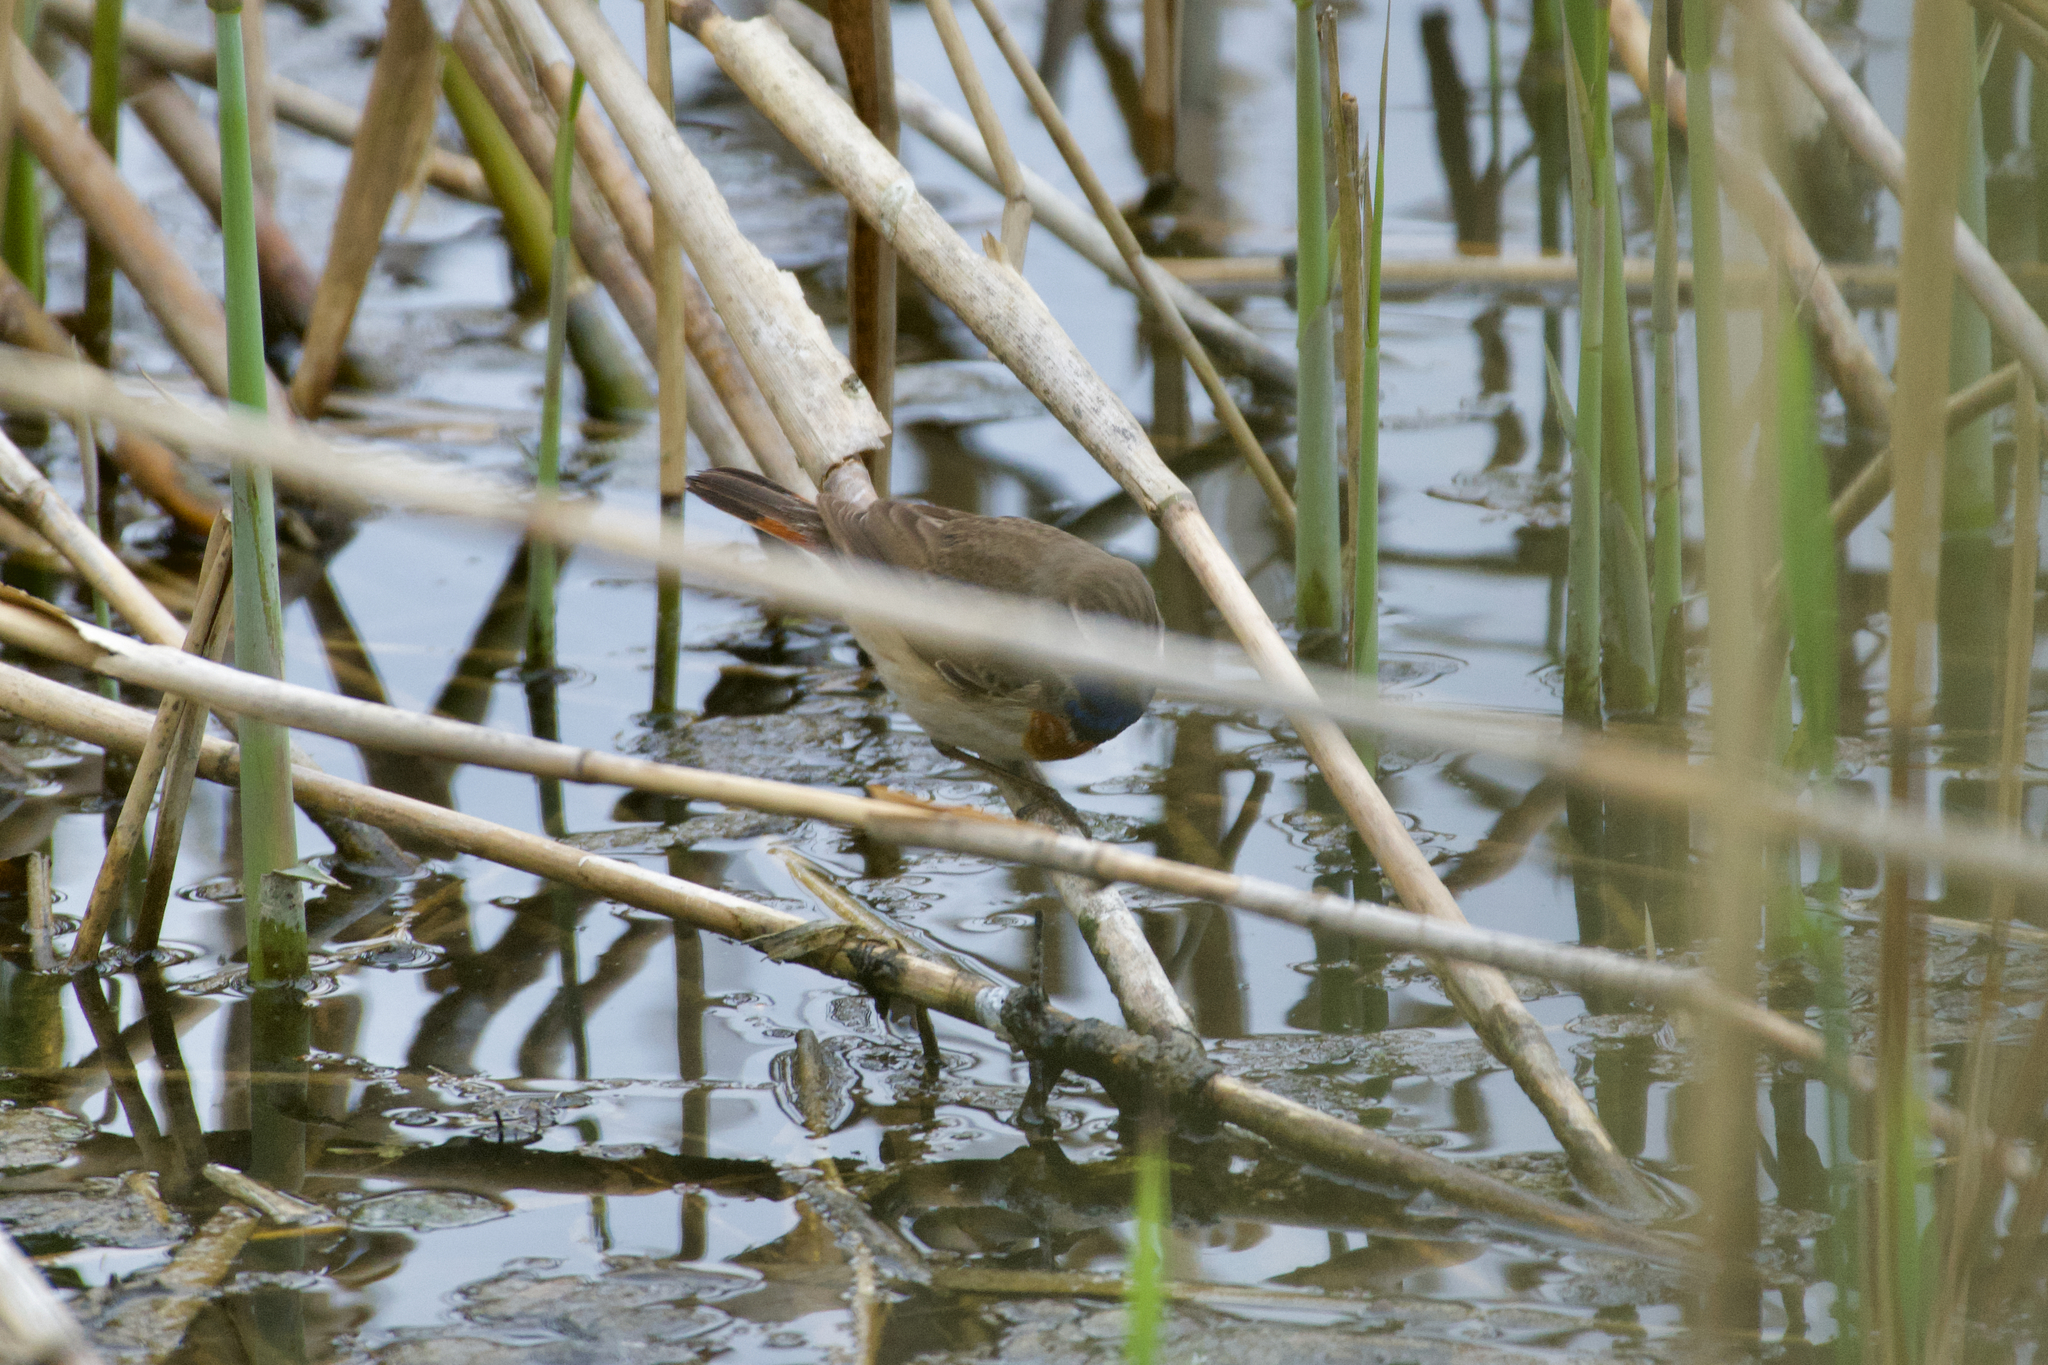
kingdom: Animalia
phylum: Chordata
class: Aves
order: Passeriformes
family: Muscicapidae
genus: Luscinia
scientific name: Luscinia svecica
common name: Bluethroat
